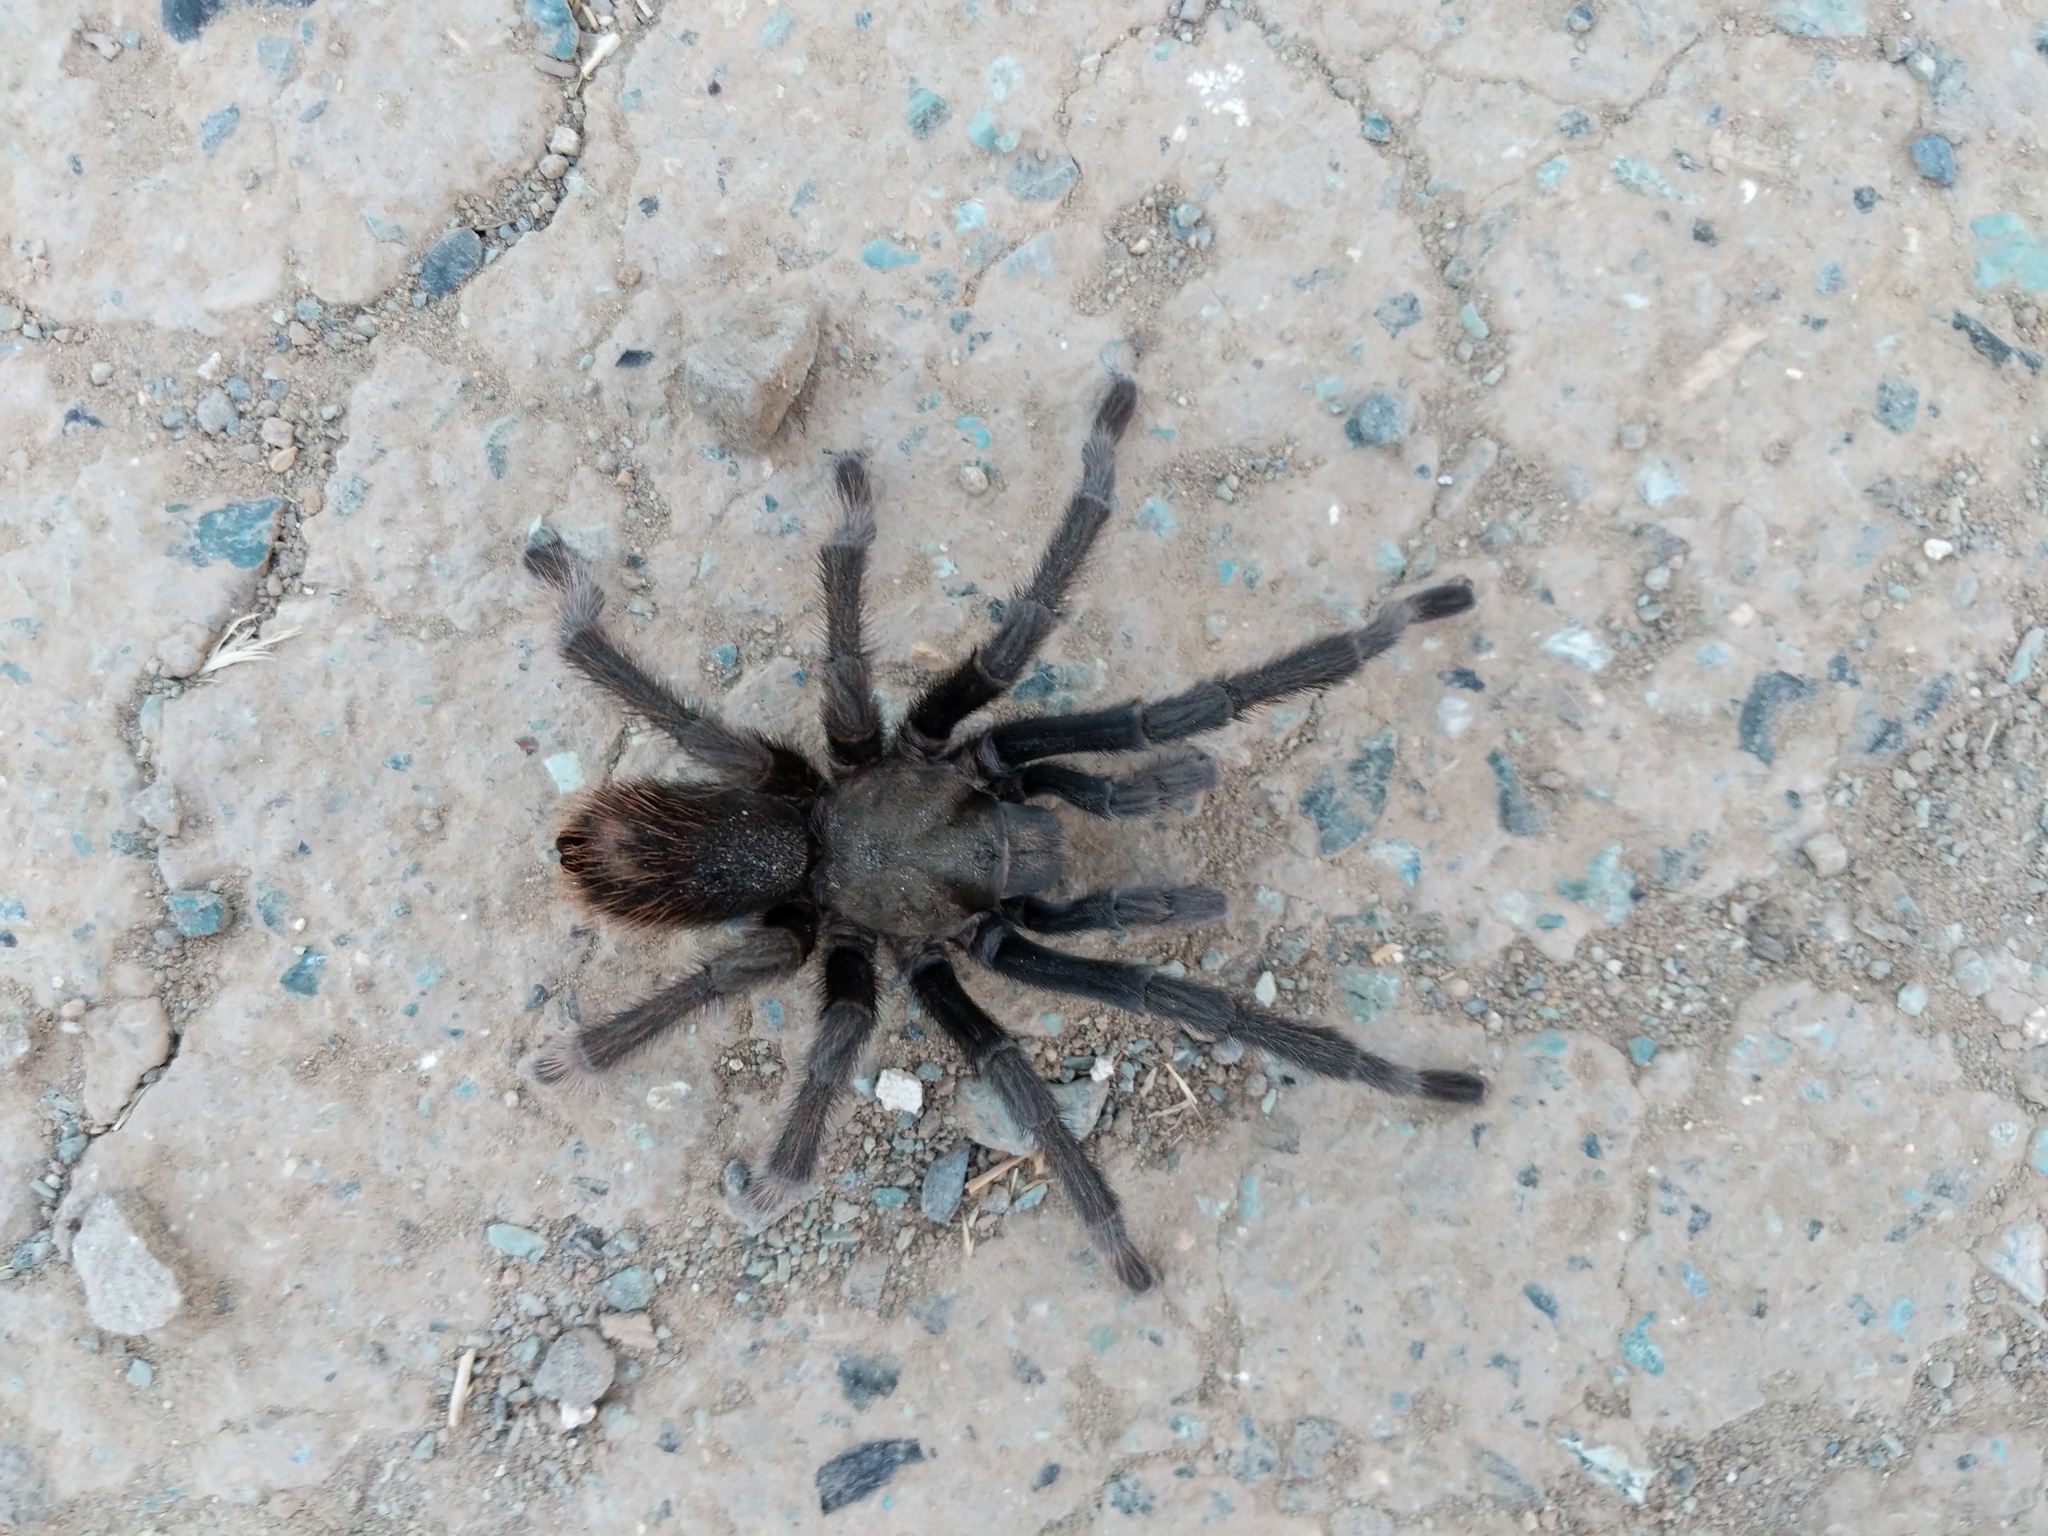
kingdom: Animalia
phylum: Arthropoda
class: Arachnida
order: Araneae
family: Theraphosidae
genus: Aphonopelma
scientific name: Aphonopelma iodius
